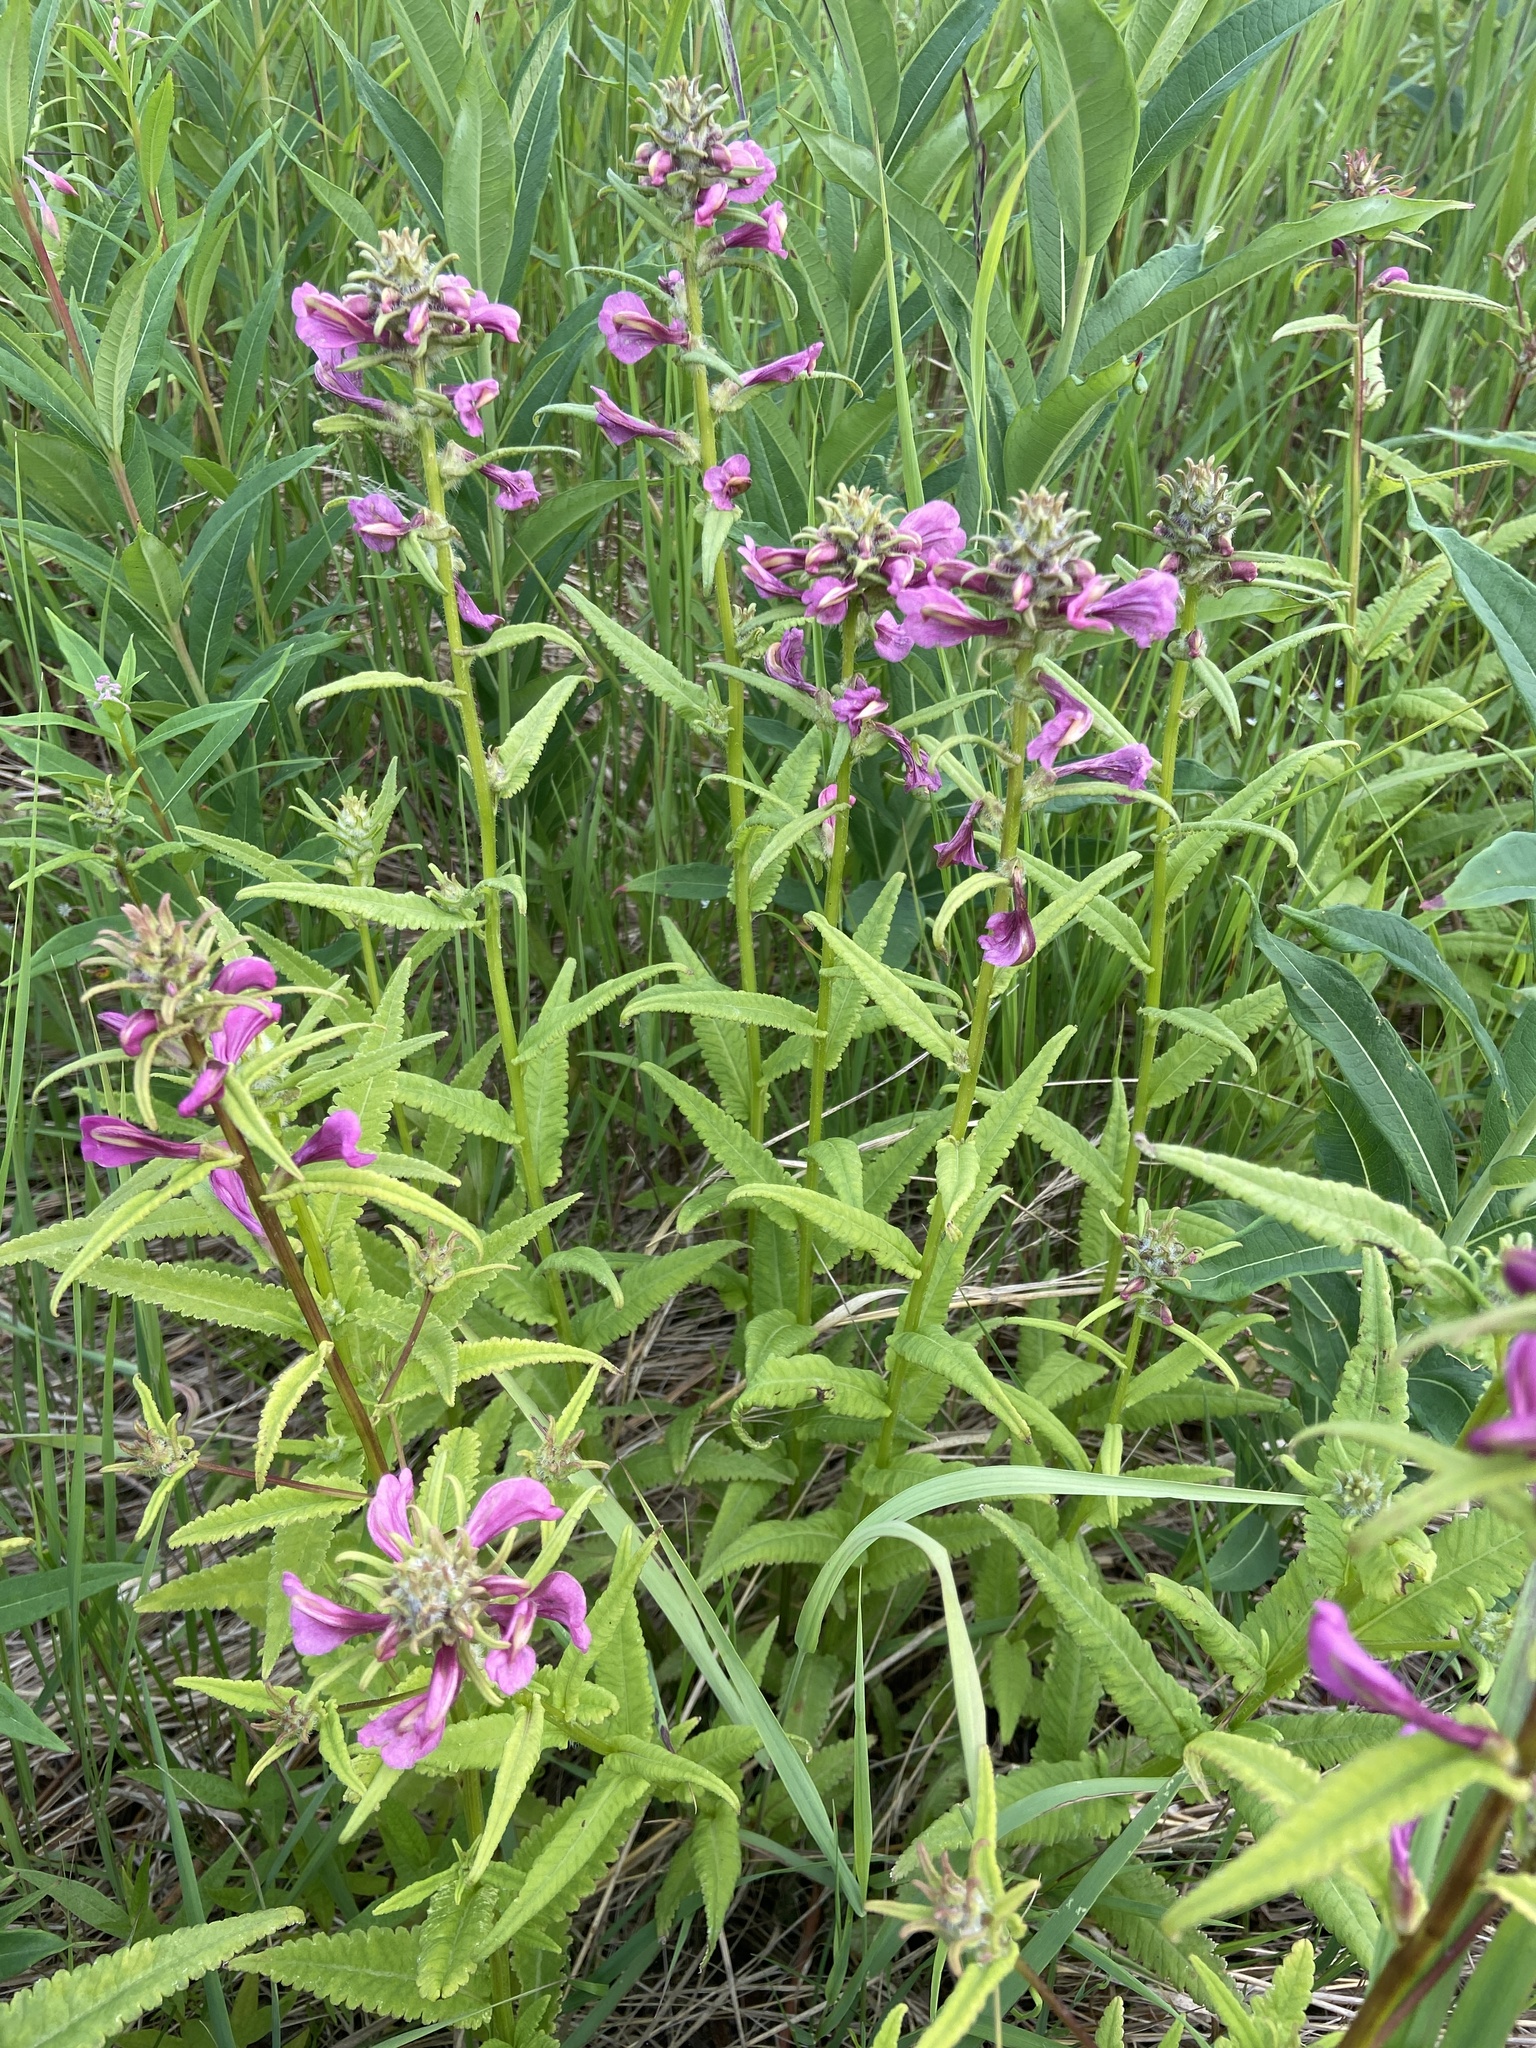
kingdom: Plantae
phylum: Tracheophyta
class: Magnoliopsida
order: Lamiales
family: Orobanchaceae
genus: Pedicularis
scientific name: Pedicularis resupinata
